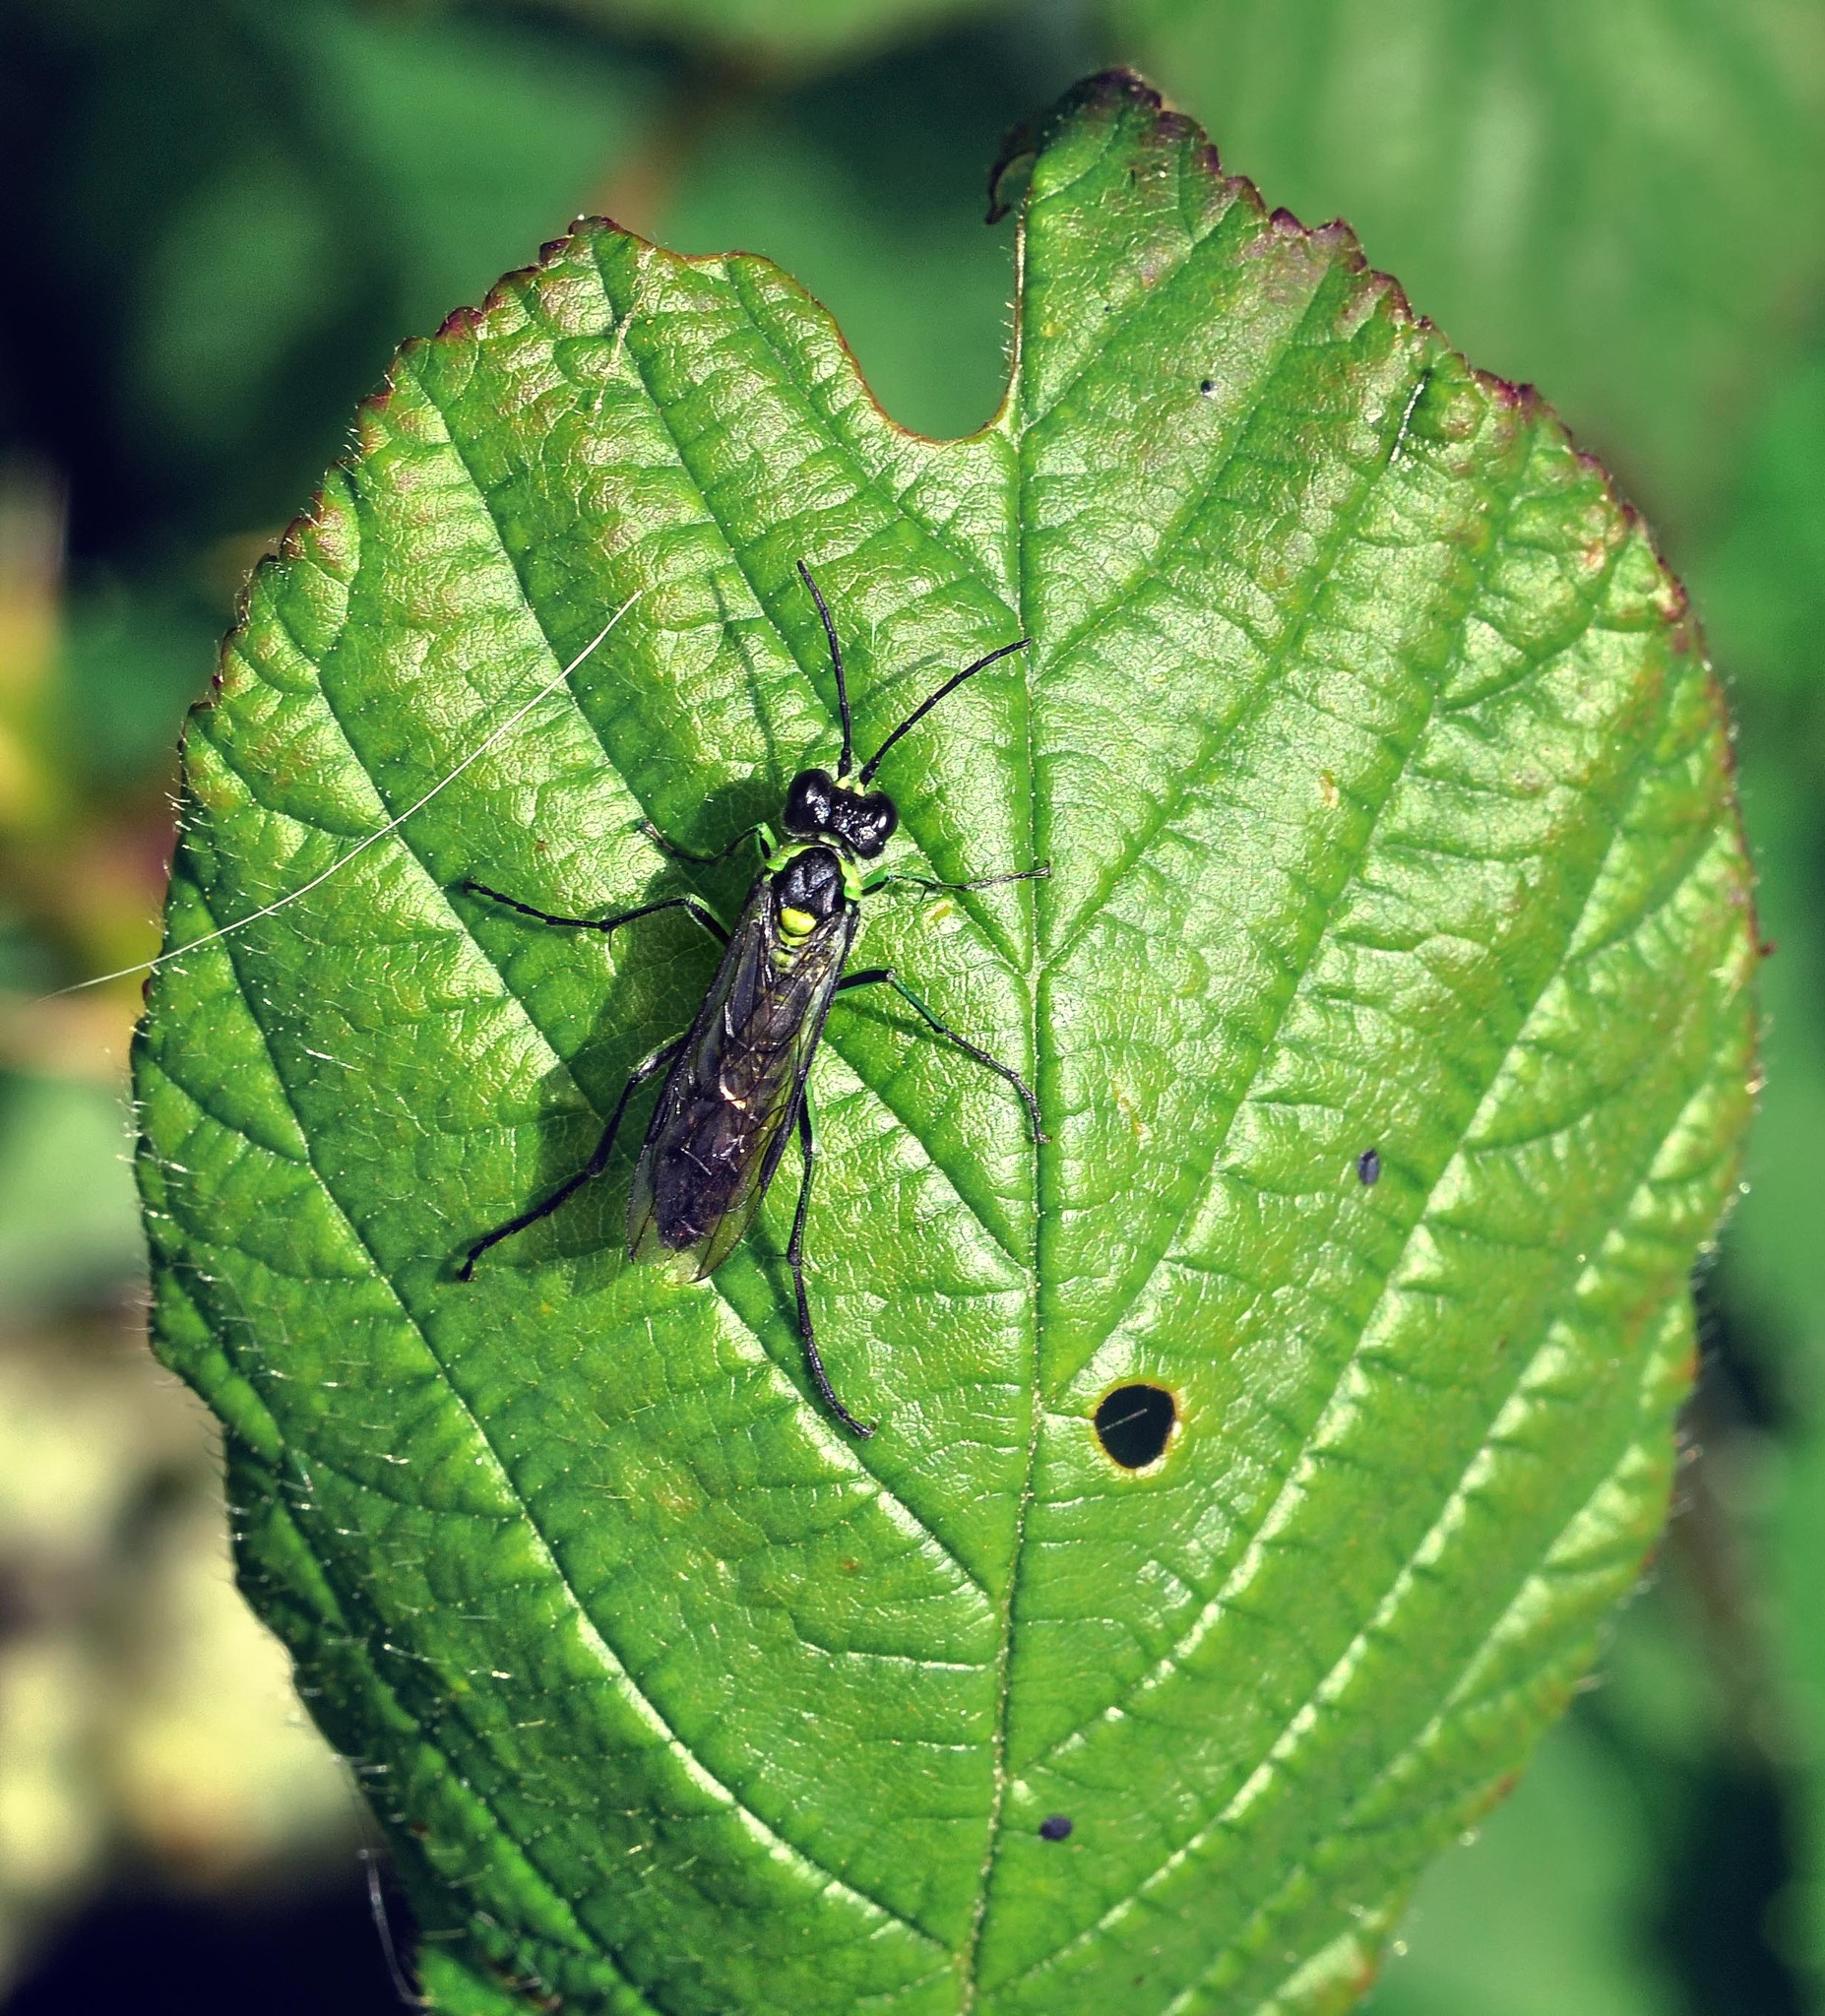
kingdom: Animalia
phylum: Arthropoda
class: Insecta
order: Hymenoptera
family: Tenthredinidae
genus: Tenthredo
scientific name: Tenthredo mesomela
